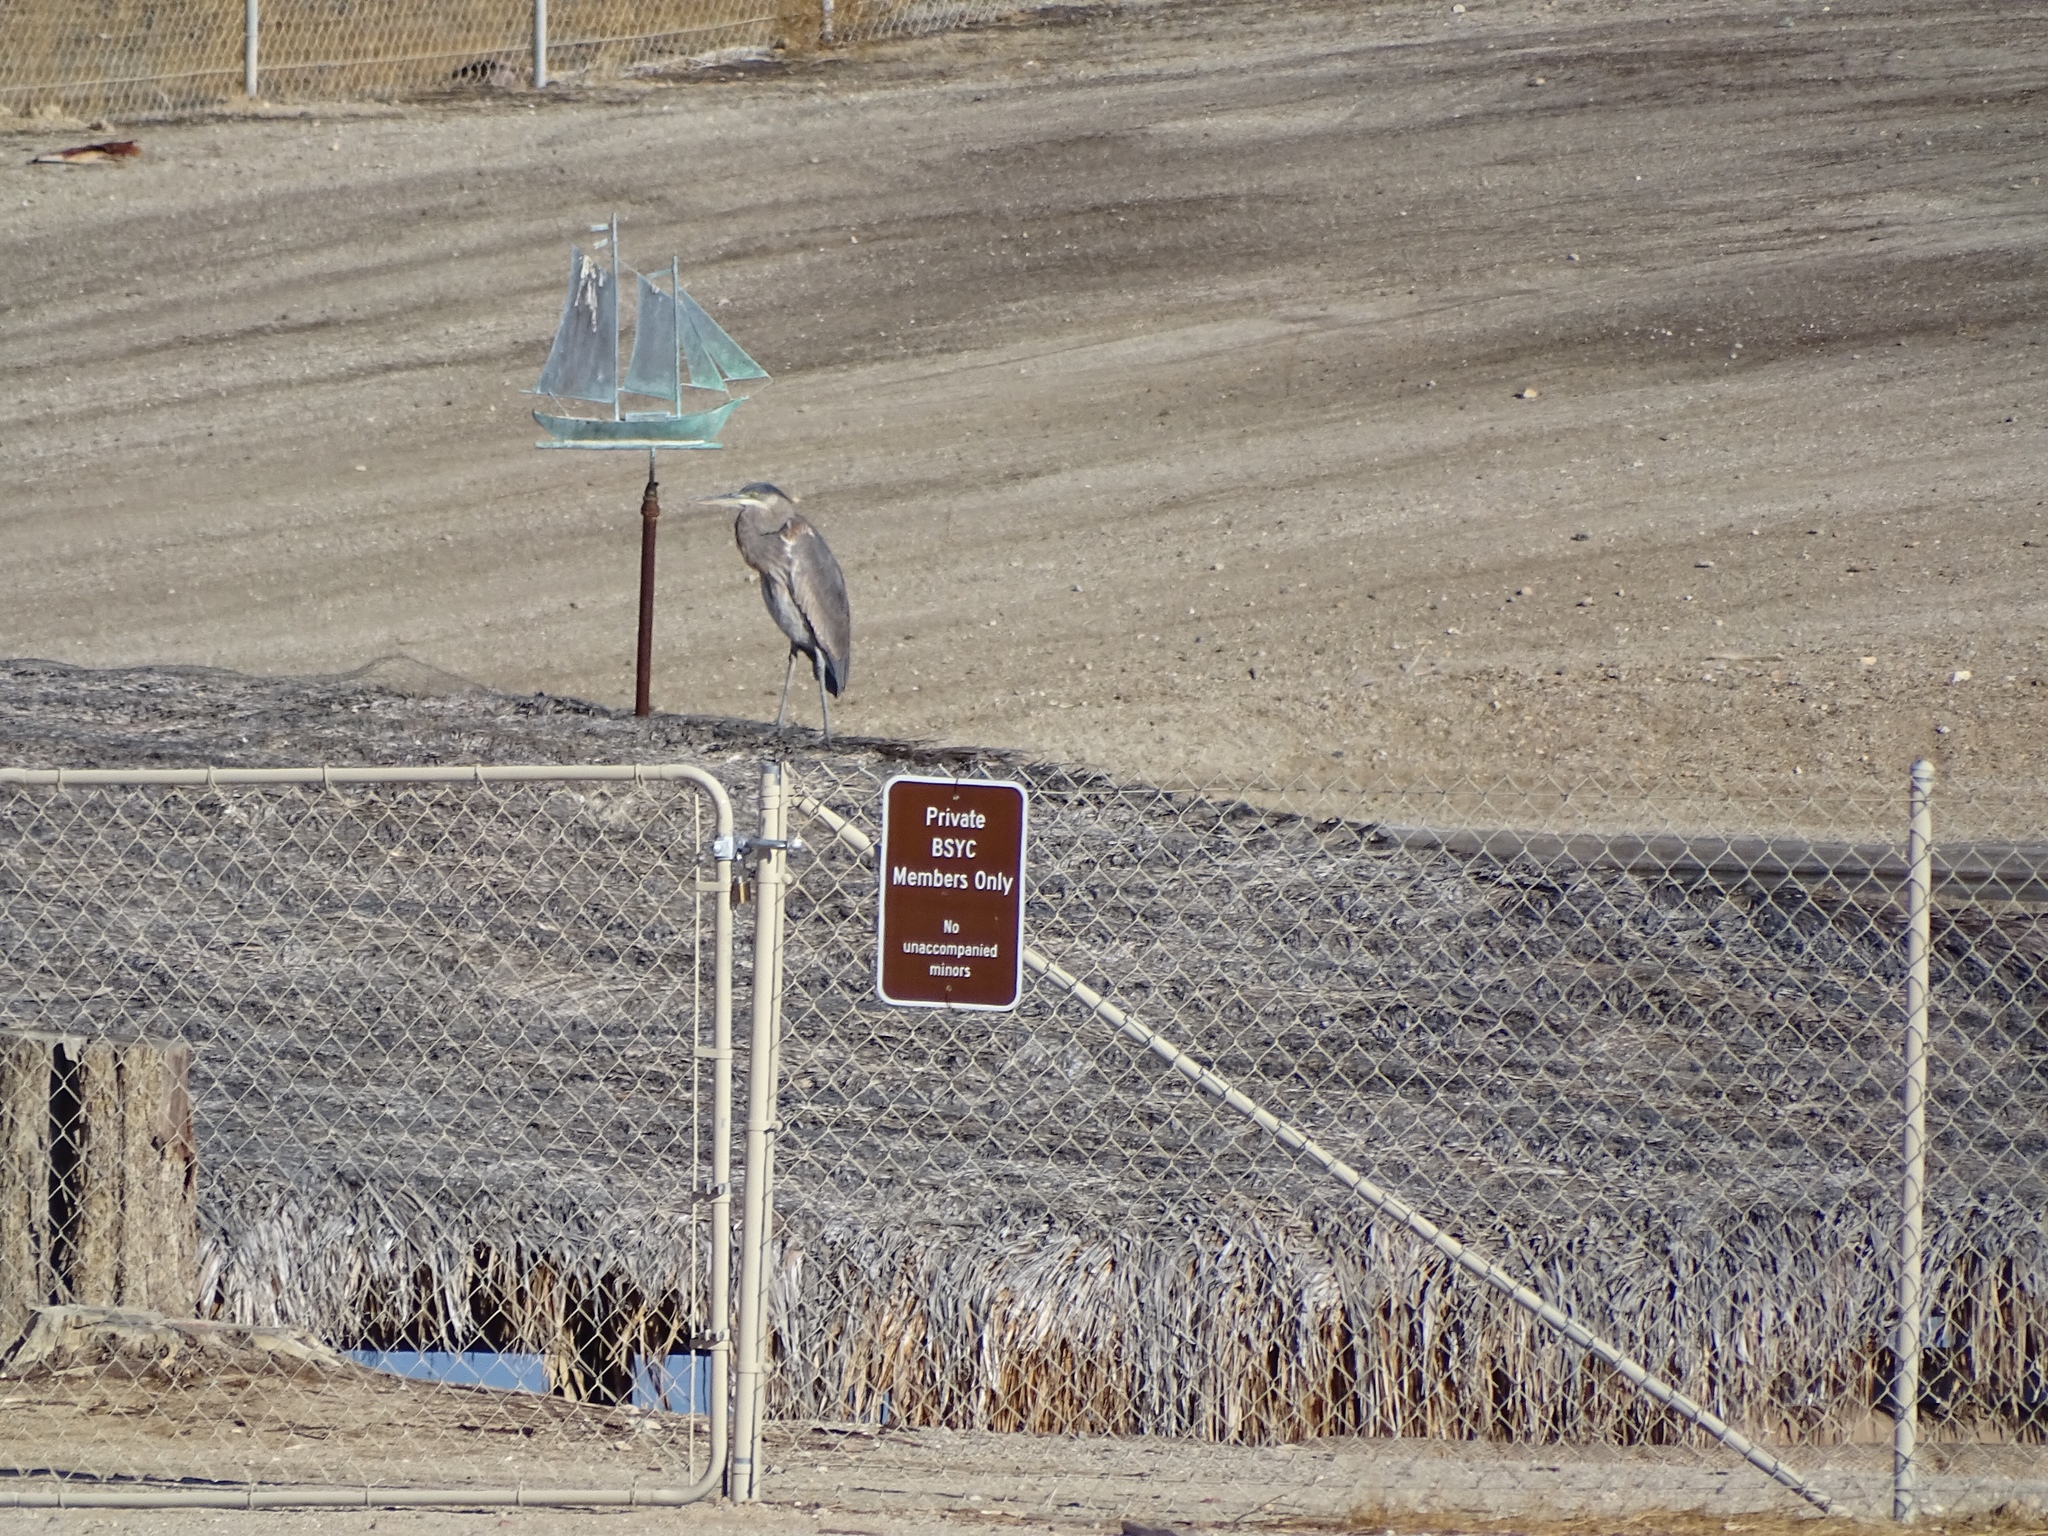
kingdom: Animalia
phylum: Chordata
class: Aves
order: Pelecaniformes
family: Ardeidae
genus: Ardea
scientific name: Ardea herodias
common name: Great blue heron
